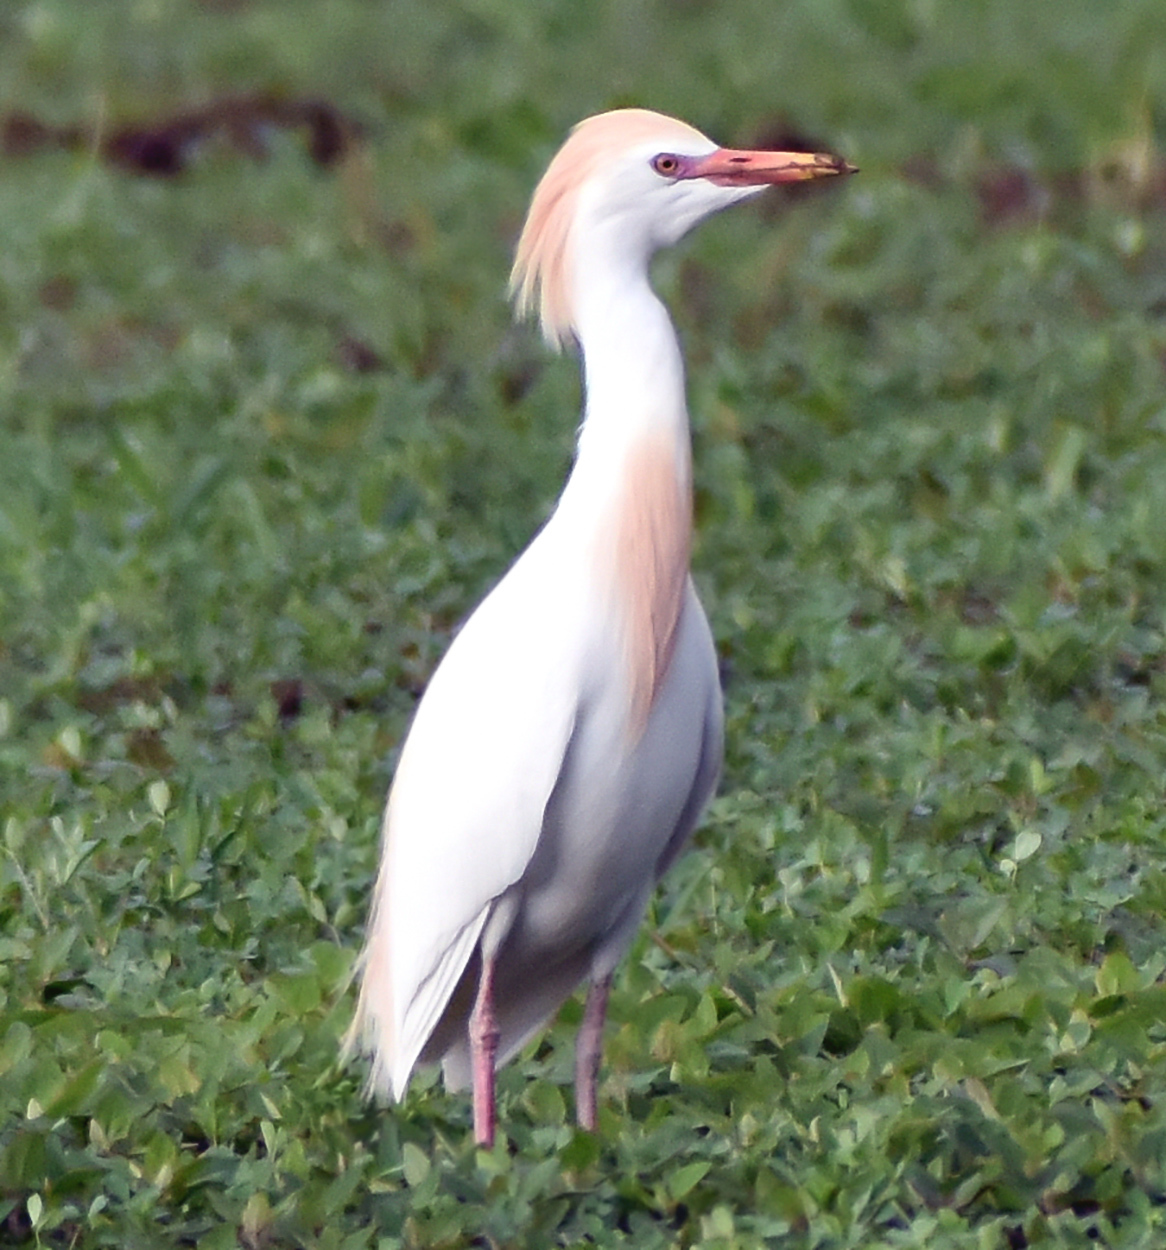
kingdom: Animalia
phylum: Chordata
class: Aves
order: Pelecaniformes
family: Ardeidae
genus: Bubulcus
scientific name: Bubulcus ibis
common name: Cattle egret
